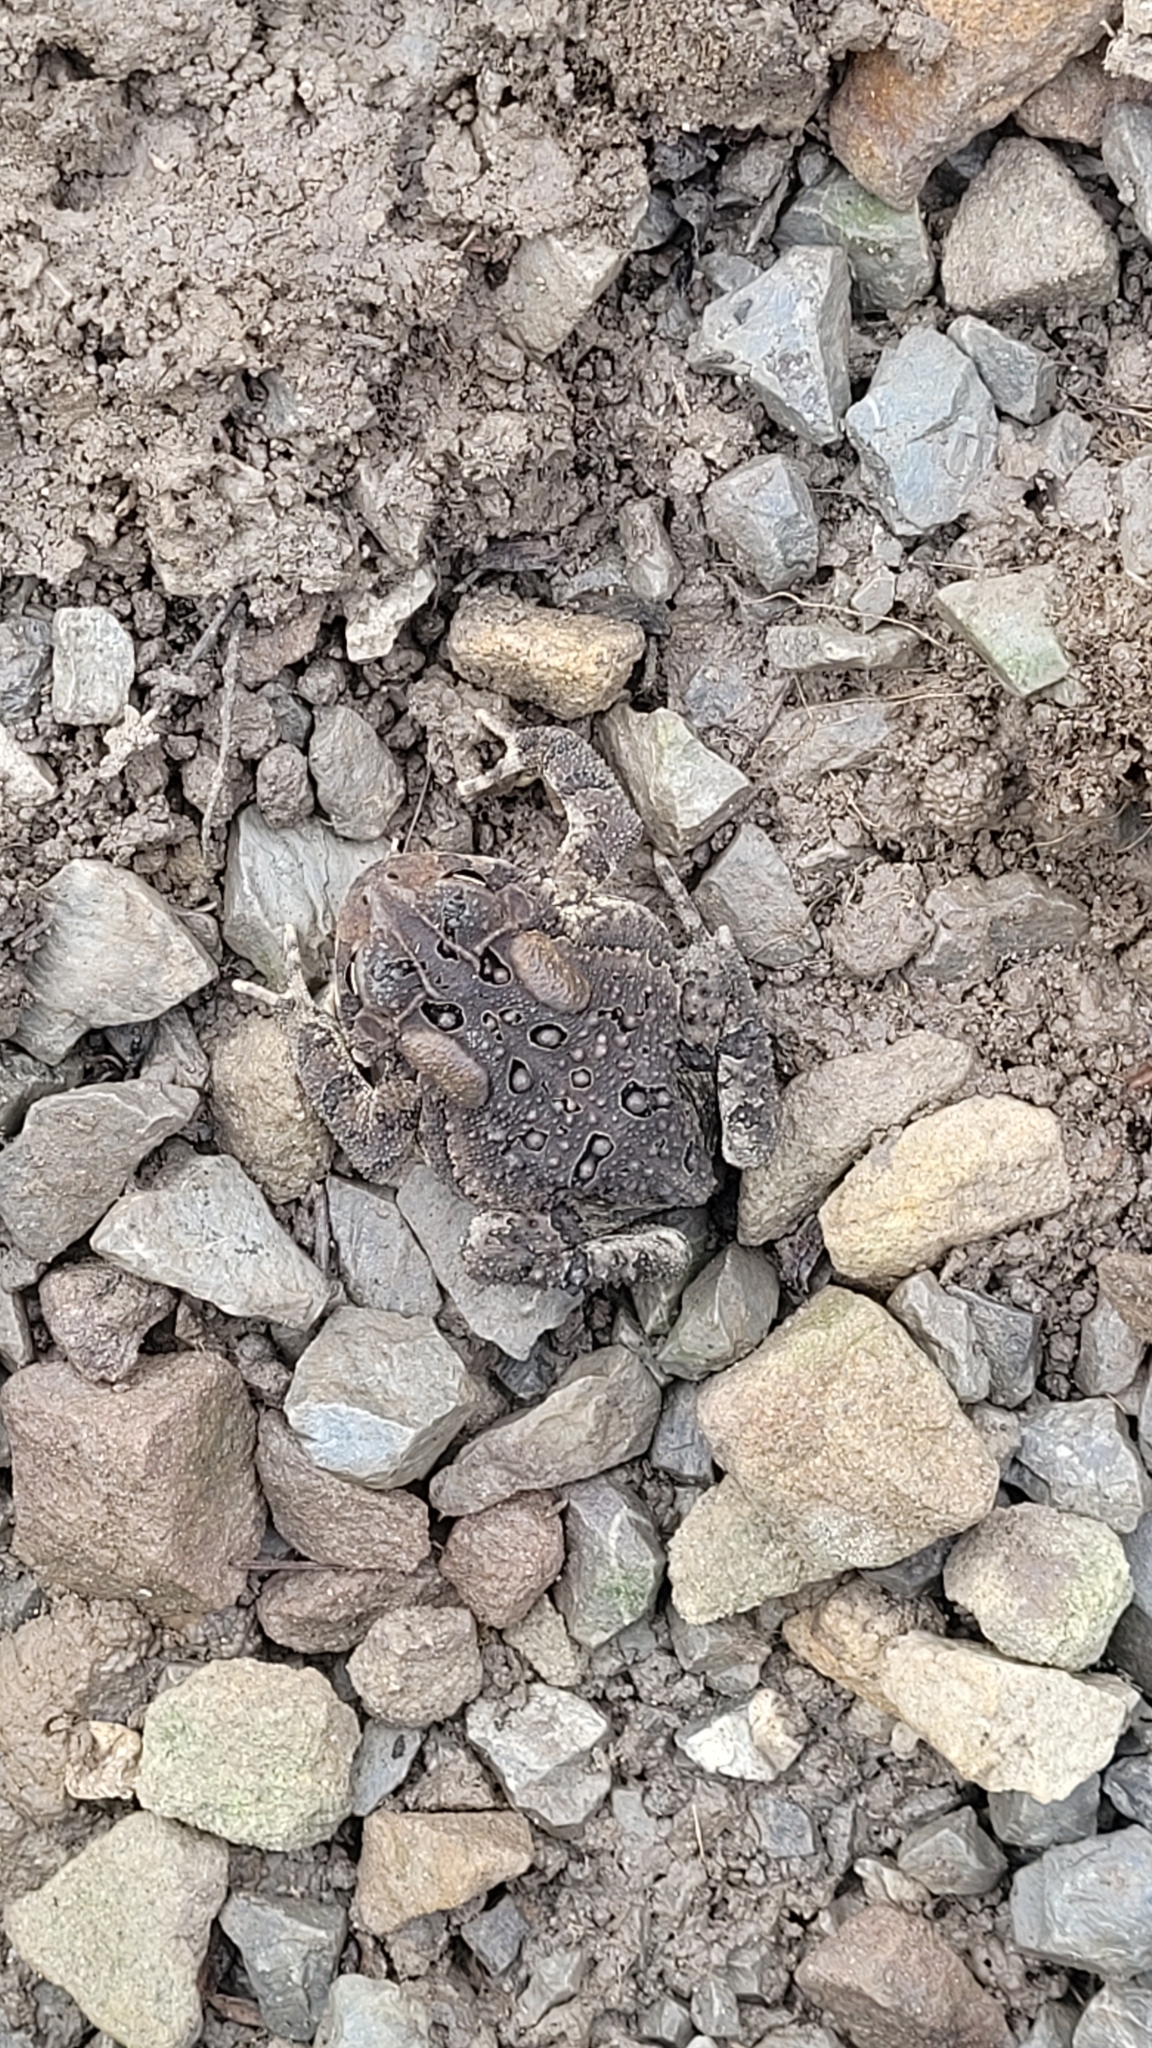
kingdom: Animalia
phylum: Chordata
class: Amphibia
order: Anura
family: Bufonidae
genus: Anaxyrus
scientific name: Anaxyrus americanus
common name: American toad
